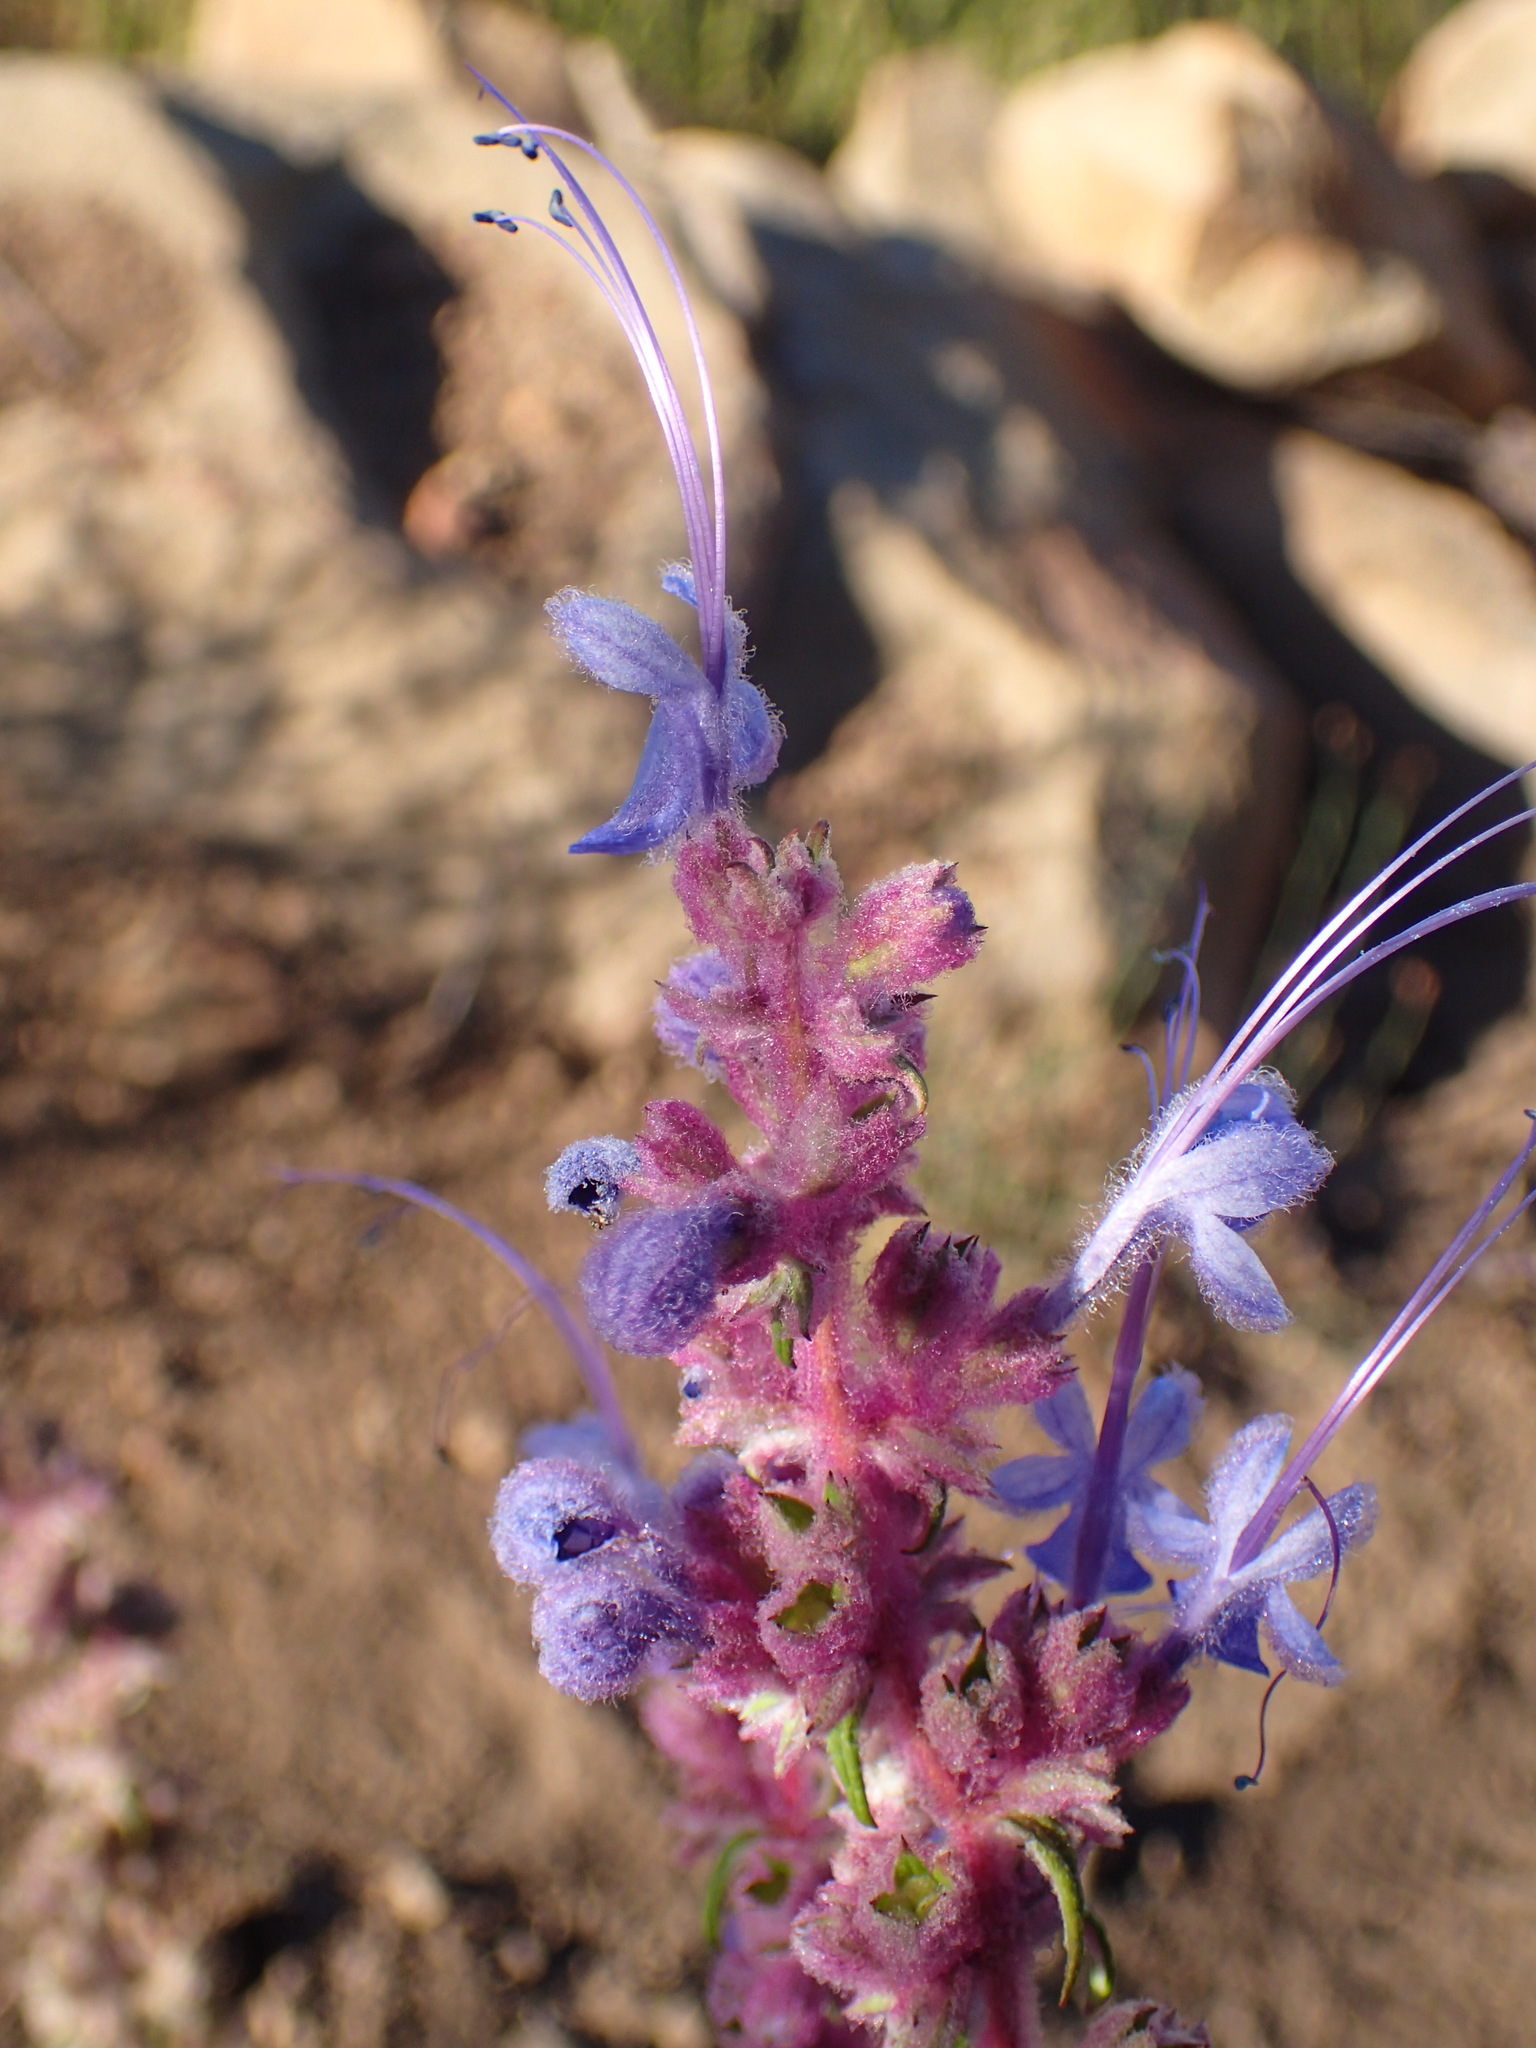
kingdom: Plantae
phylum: Tracheophyta
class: Magnoliopsida
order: Lamiales
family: Lamiaceae
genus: Trichostema
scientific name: Trichostema lanatum
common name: Woolly bluecurls
